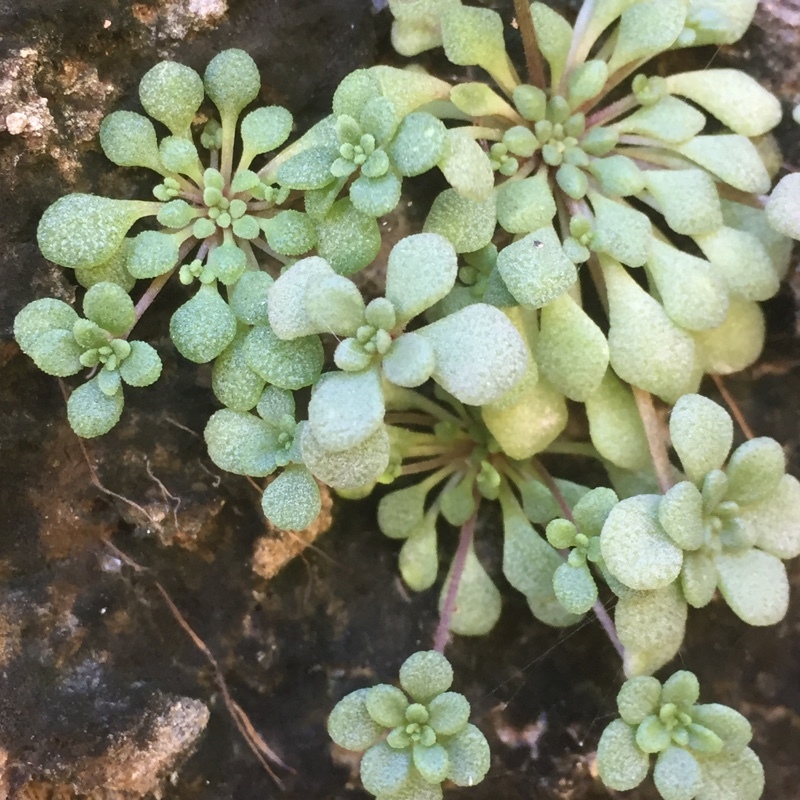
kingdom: Plantae
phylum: Tracheophyta
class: Magnoliopsida
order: Saxifragales
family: Crassulaceae
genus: Monanthes
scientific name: Monanthes brachycaulos
